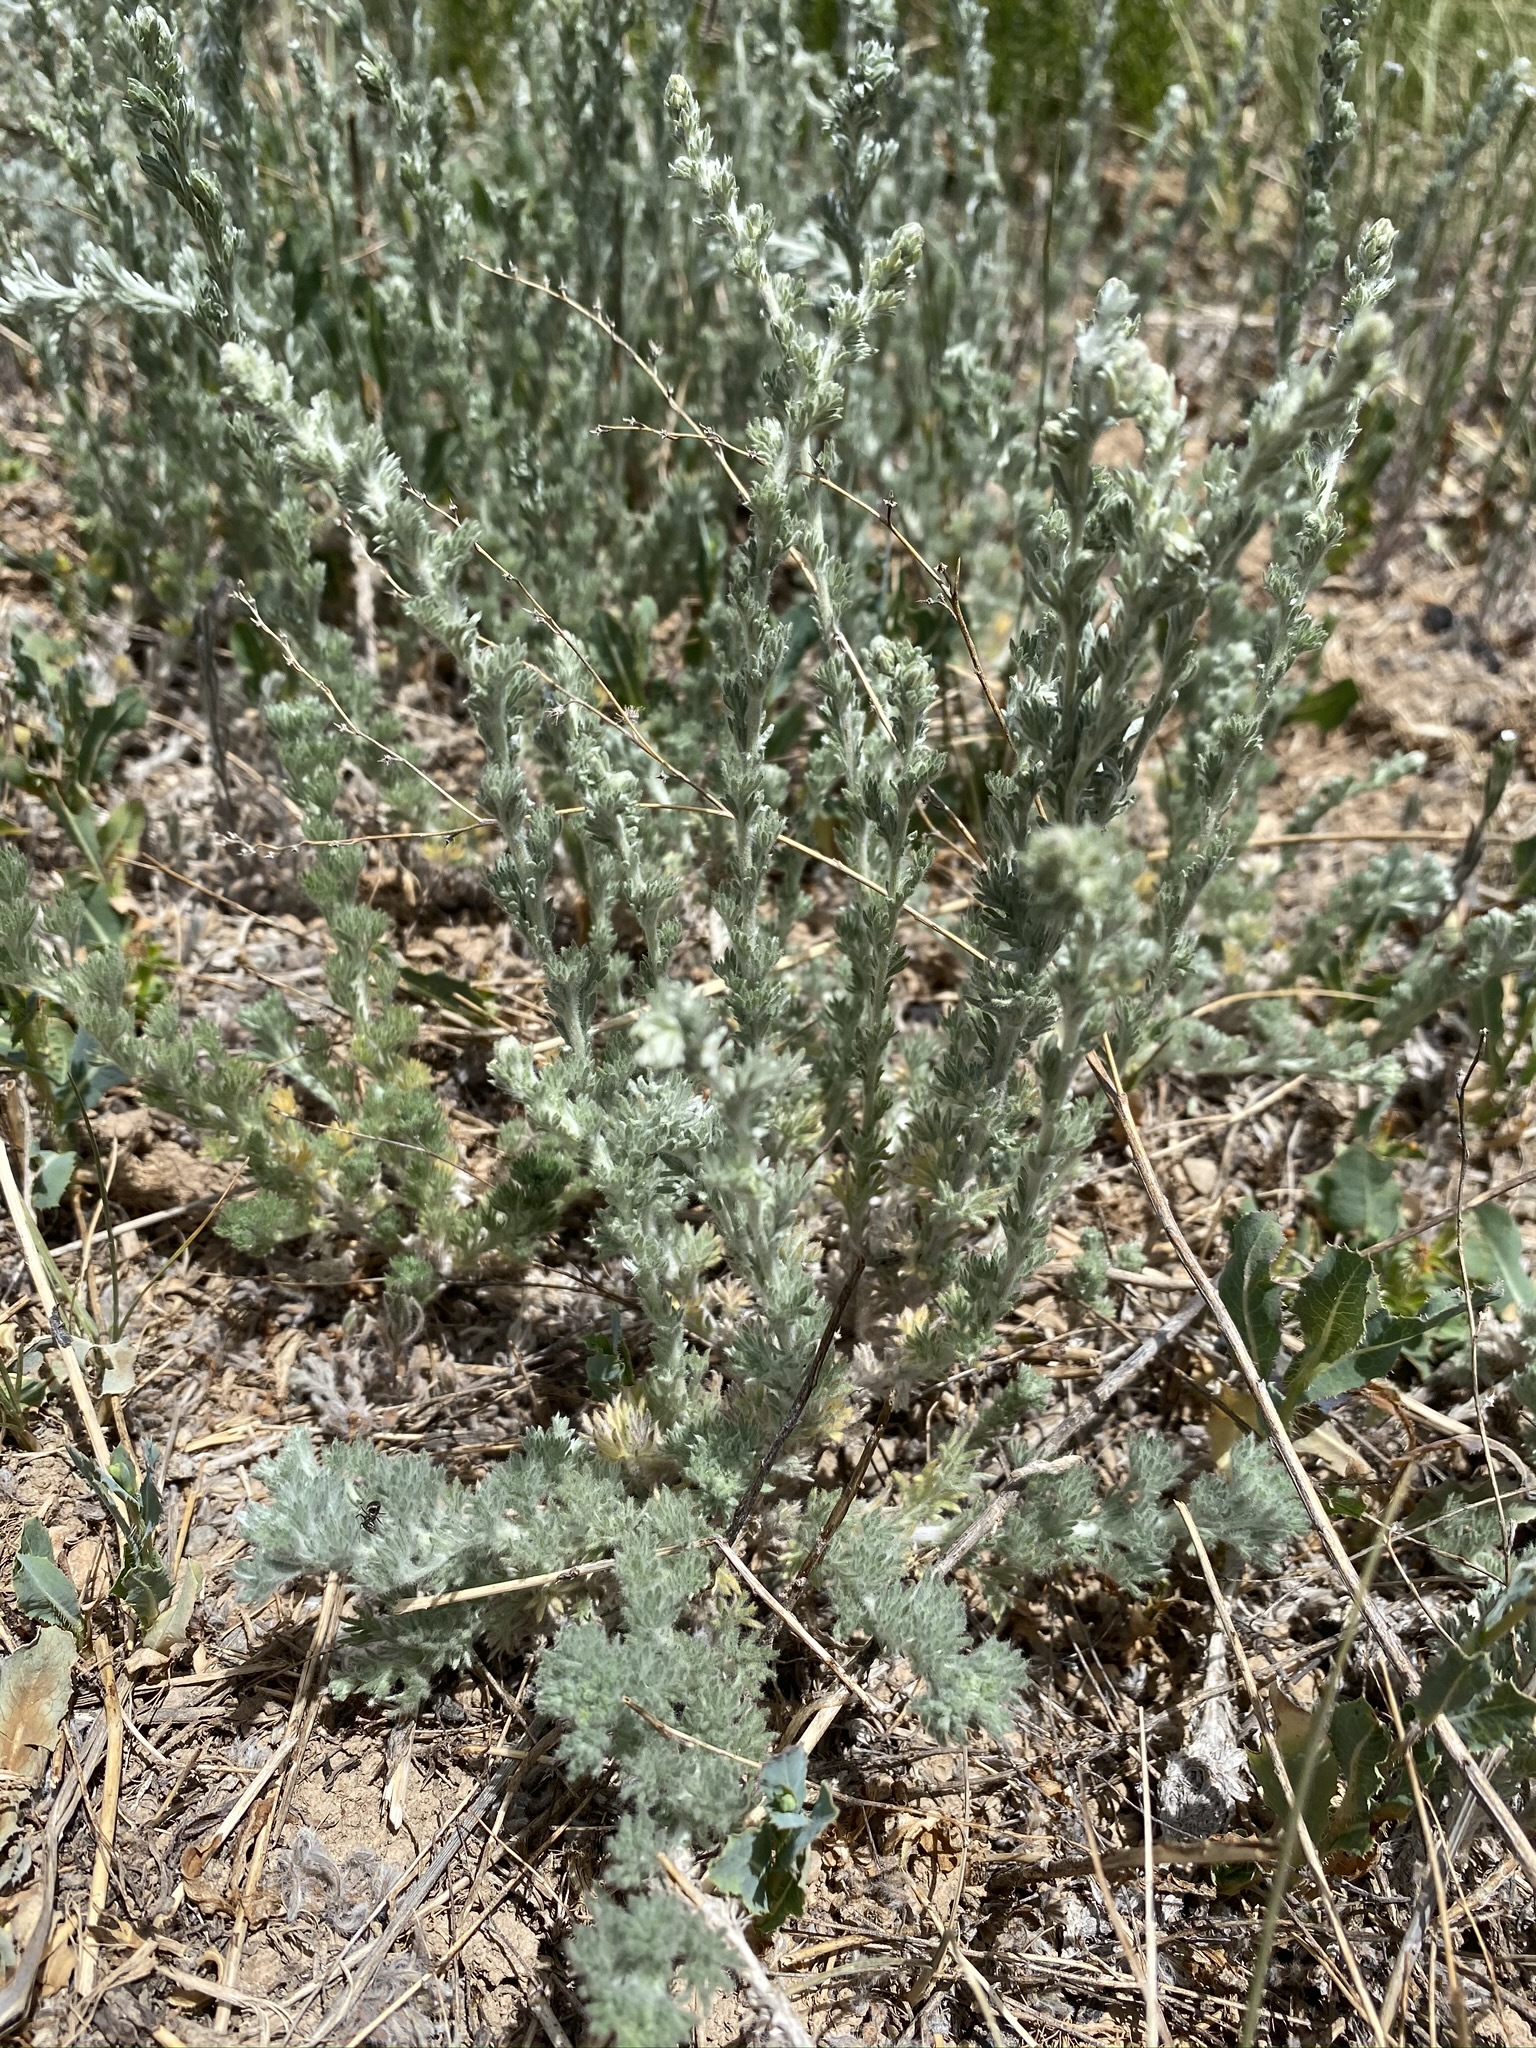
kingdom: Plantae
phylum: Tracheophyta
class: Magnoliopsida
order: Asterales
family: Asteraceae
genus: Artemisia
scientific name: Artemisia frigida
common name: Prairie sagewort
